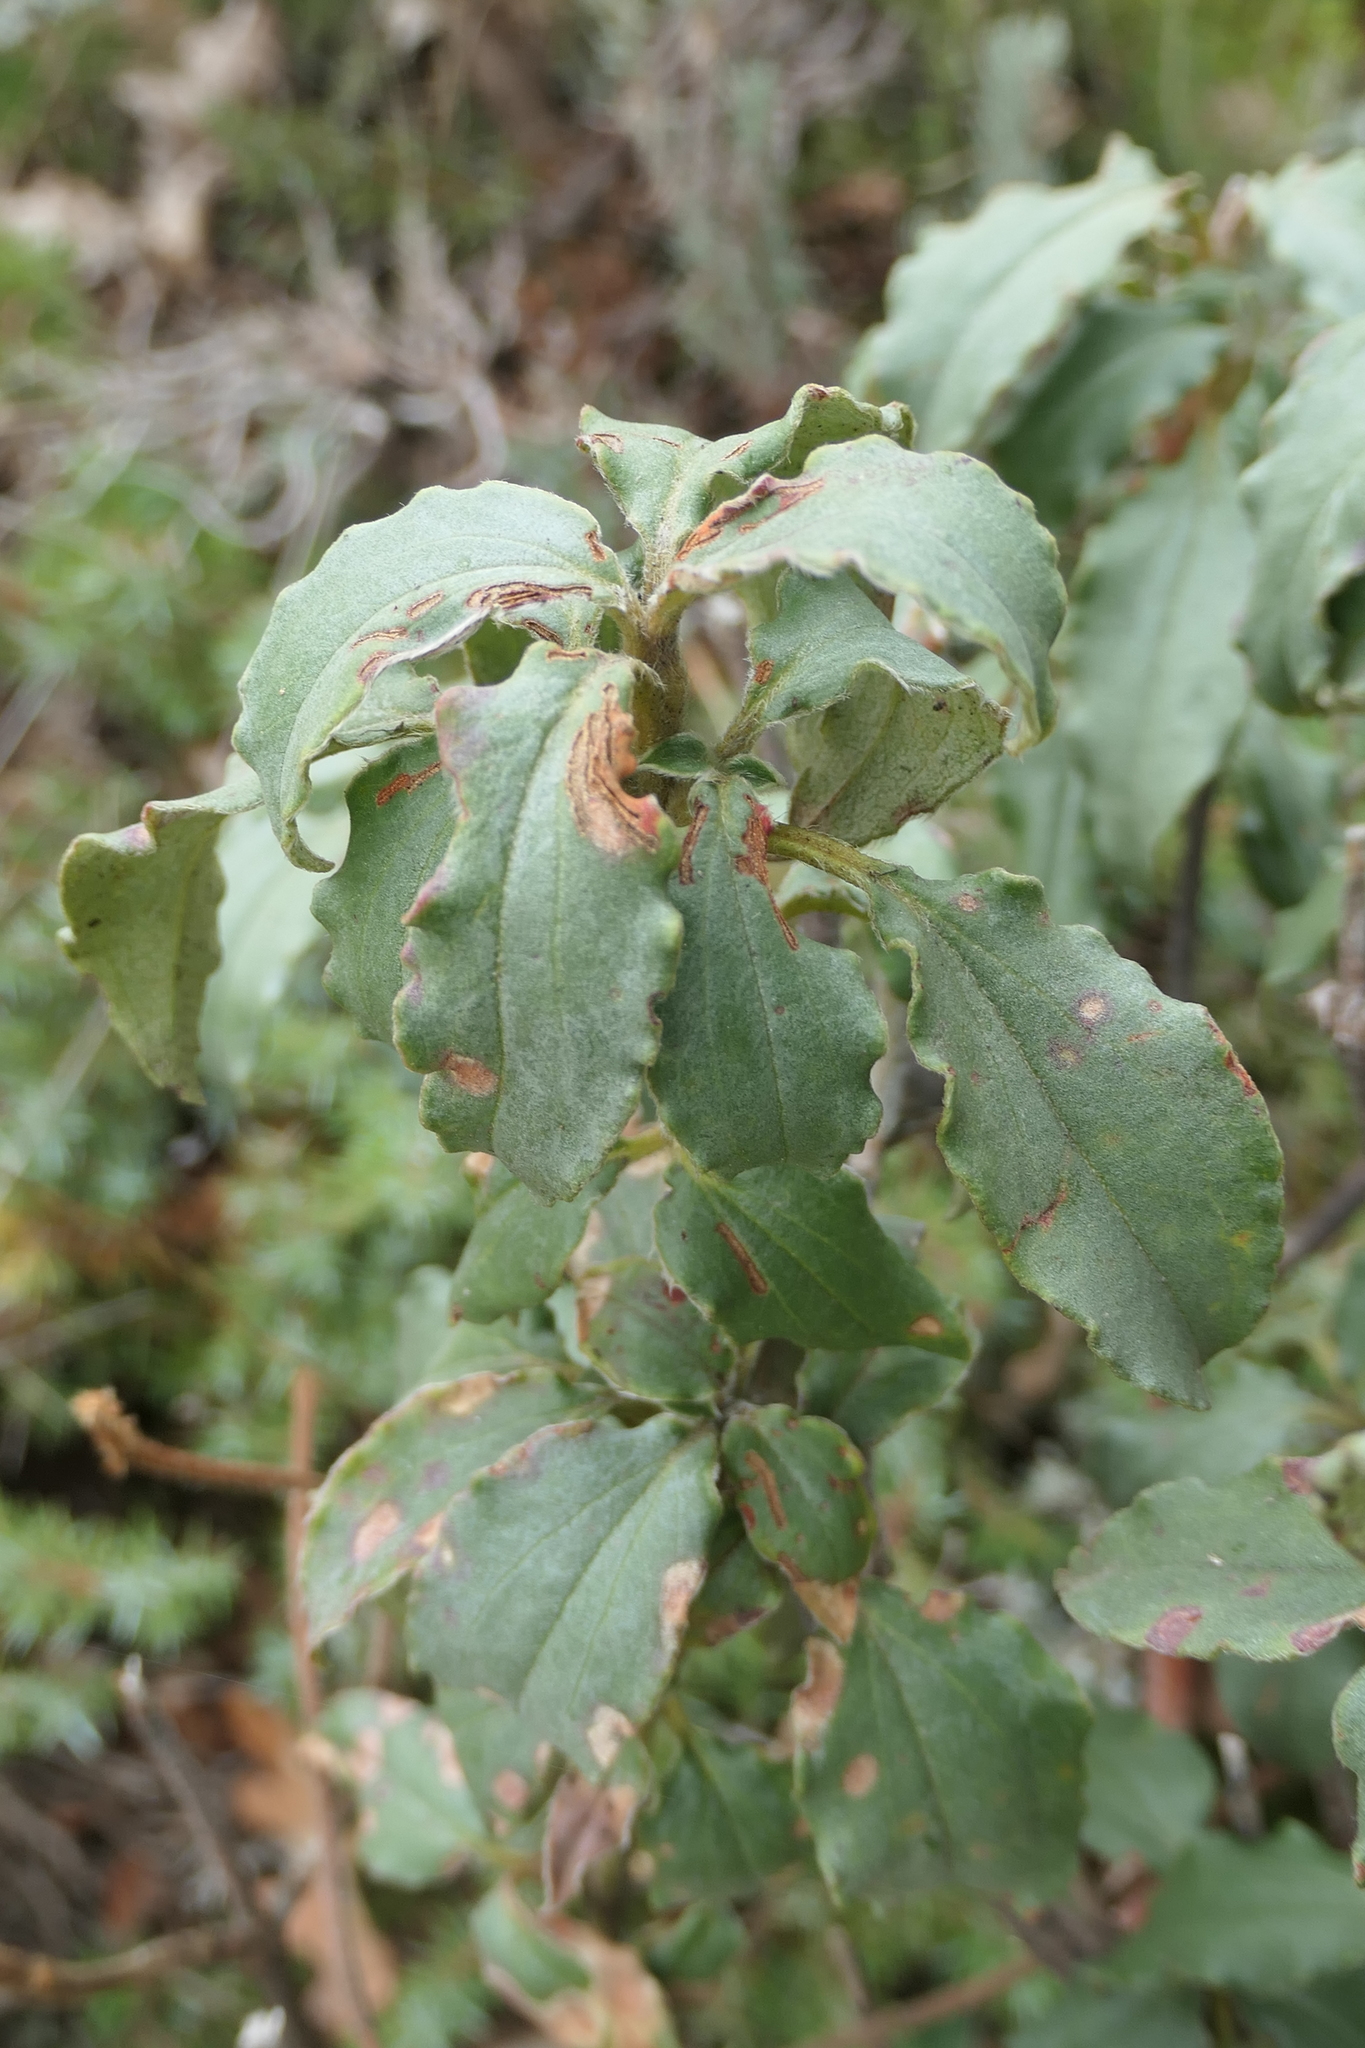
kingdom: Plantae
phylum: Tracheophyta
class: Magnoliopsida
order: Malvales
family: Cistaceae
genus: Cistus
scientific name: Cistus laurifolius
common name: Laurel-leaved cistus
